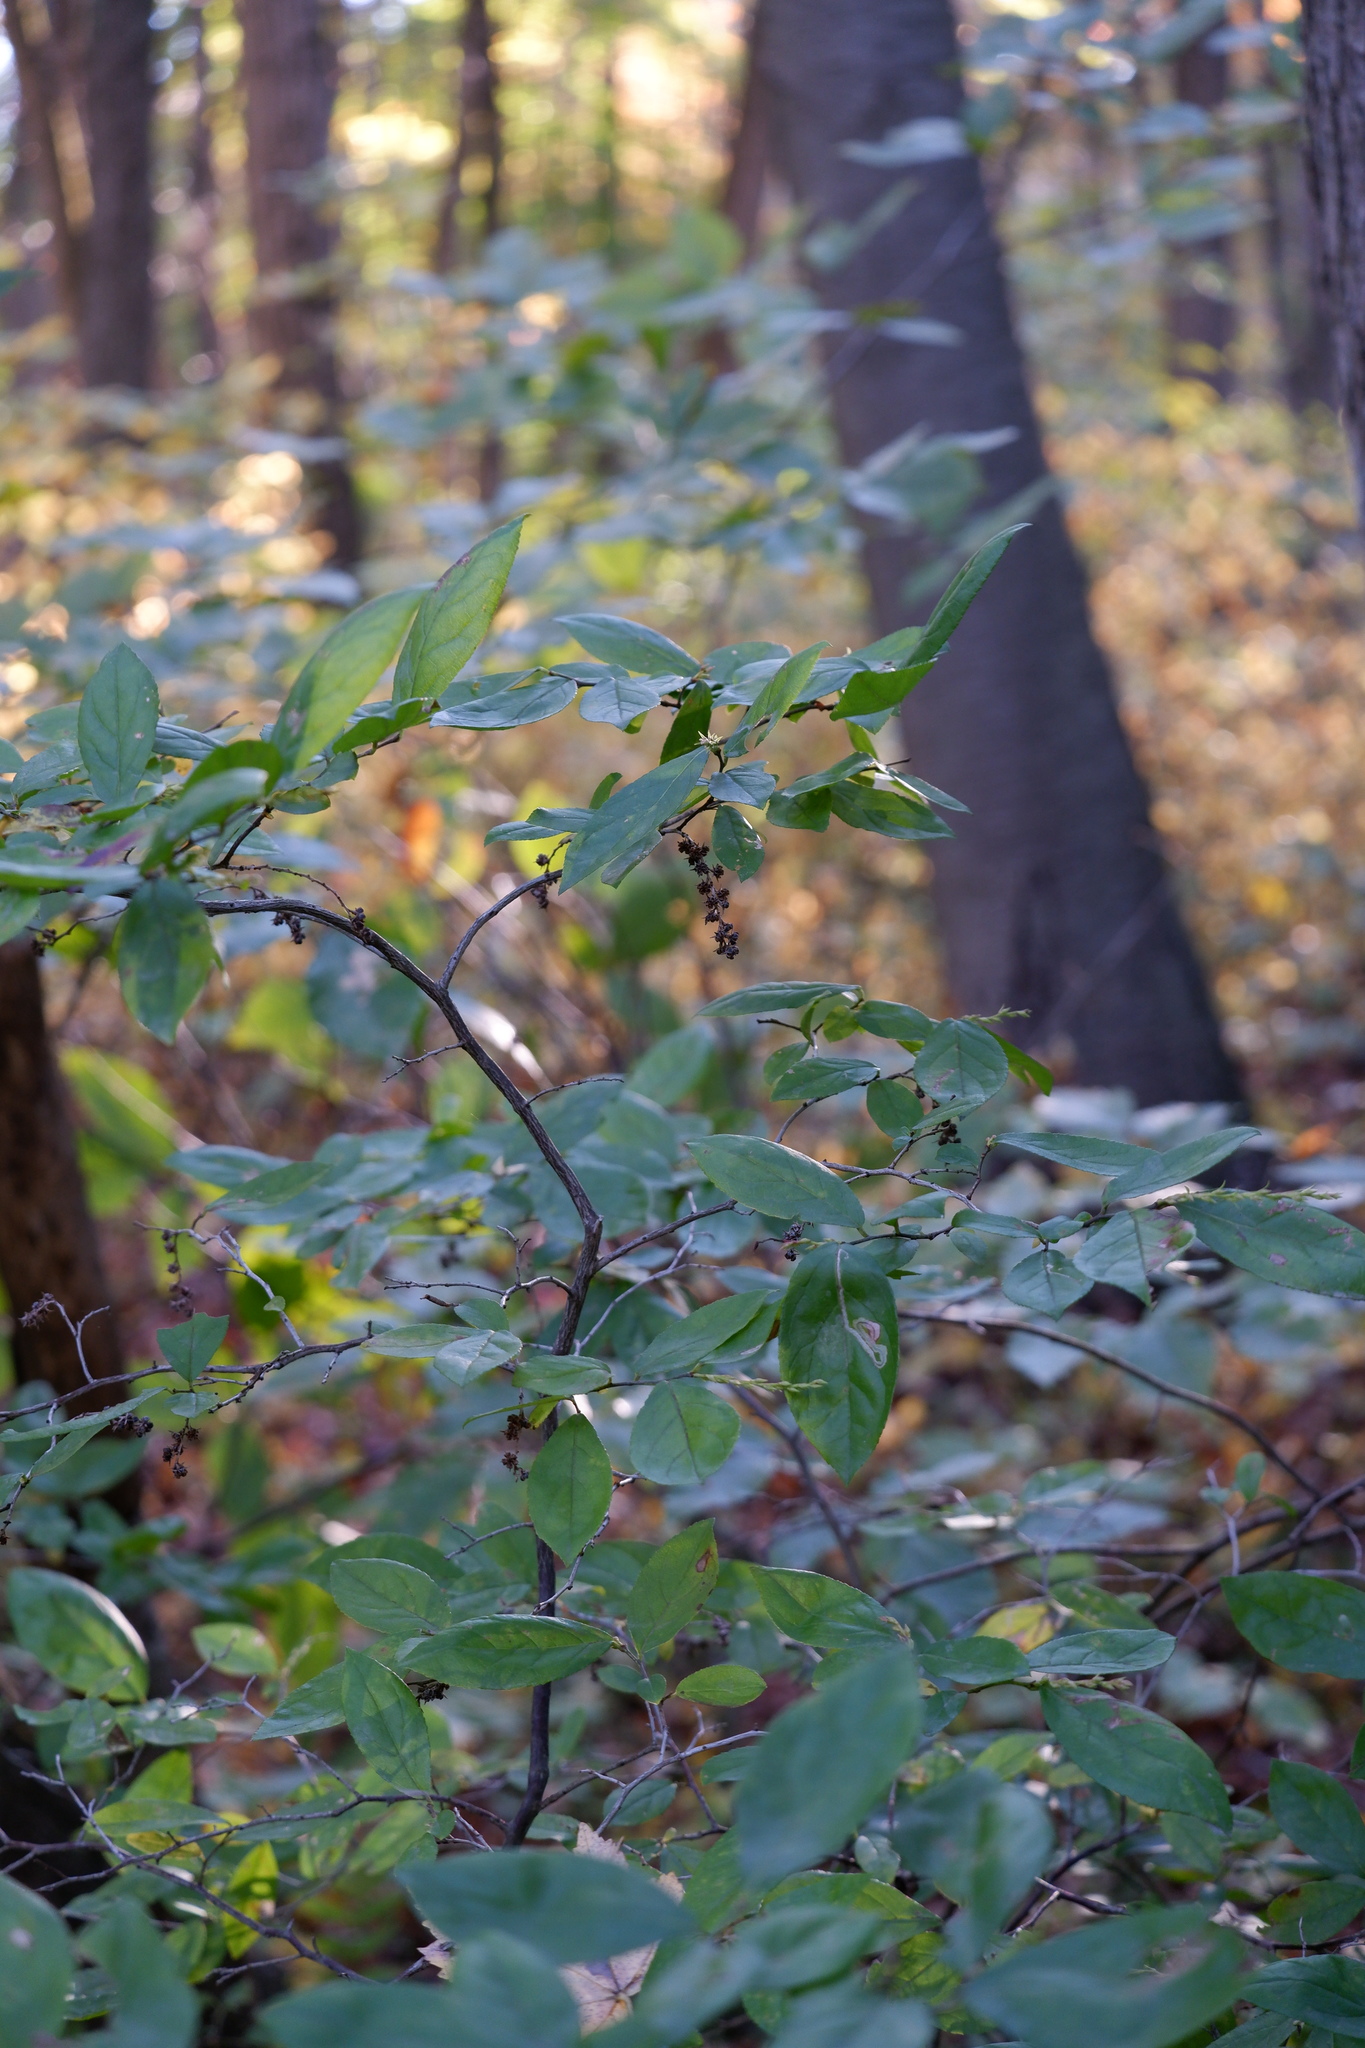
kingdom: Plantae
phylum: Tracheophyta
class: Magnoliopsida
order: Ericales
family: Ericaceae
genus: Eubotrys
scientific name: Eubotrys racemosa
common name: Fetterbush
